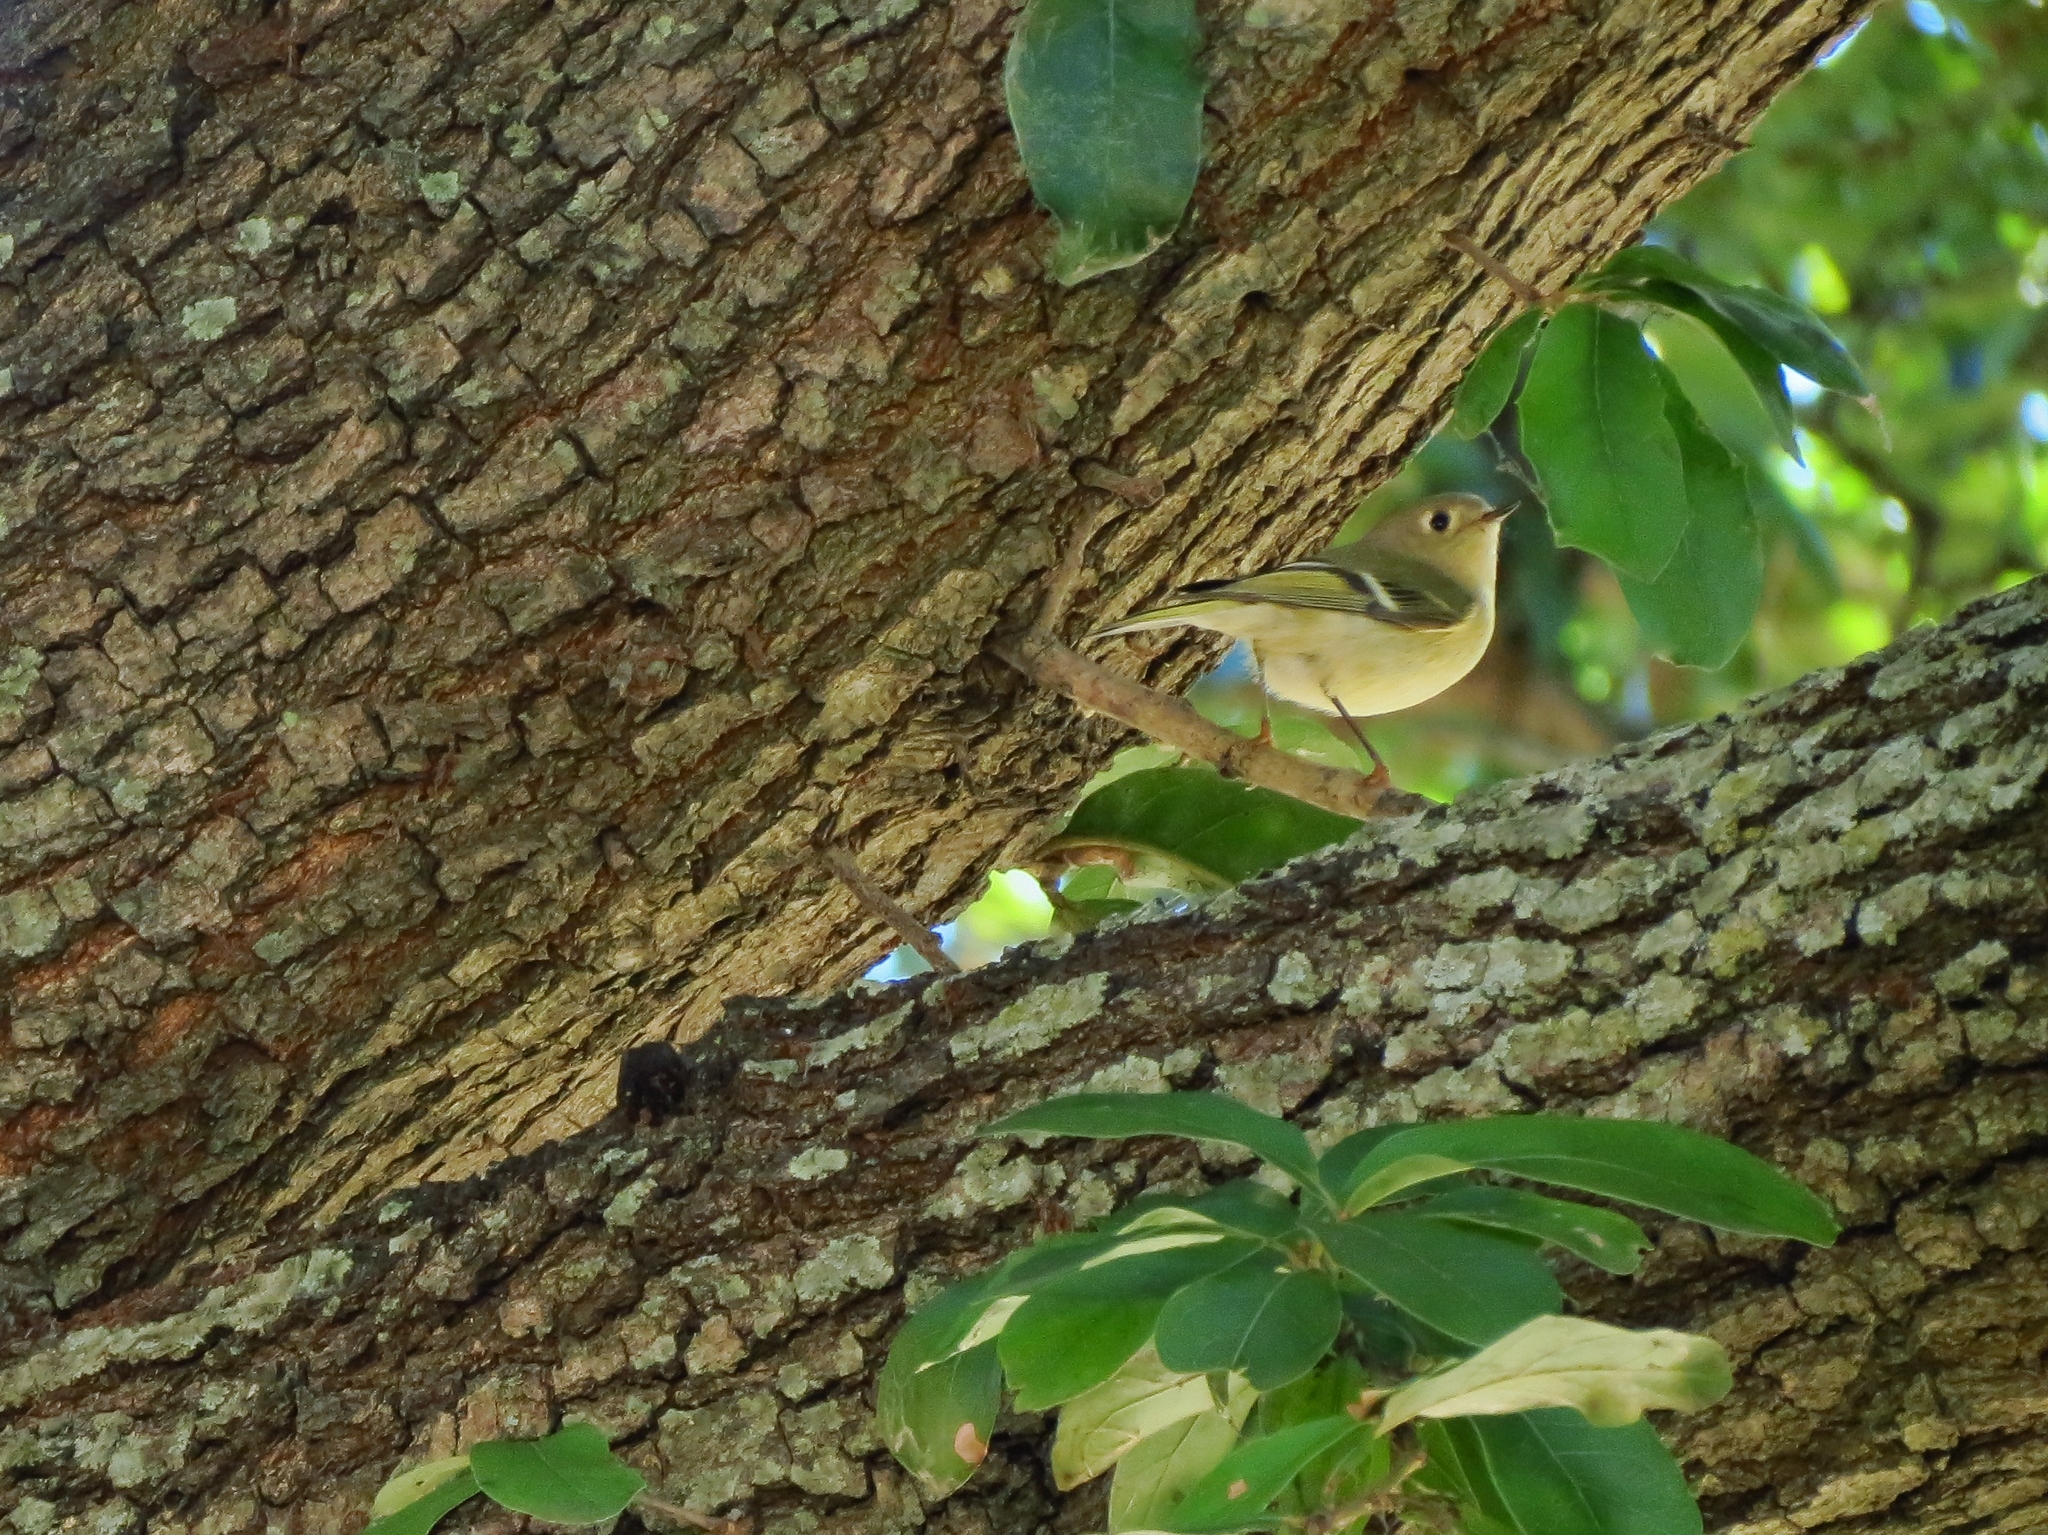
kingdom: Animalia
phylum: Chordata
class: Aves
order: Passeriformes
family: Regulidae
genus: Regulus
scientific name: Regulus calendula
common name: Ruby-crowned kinglet
